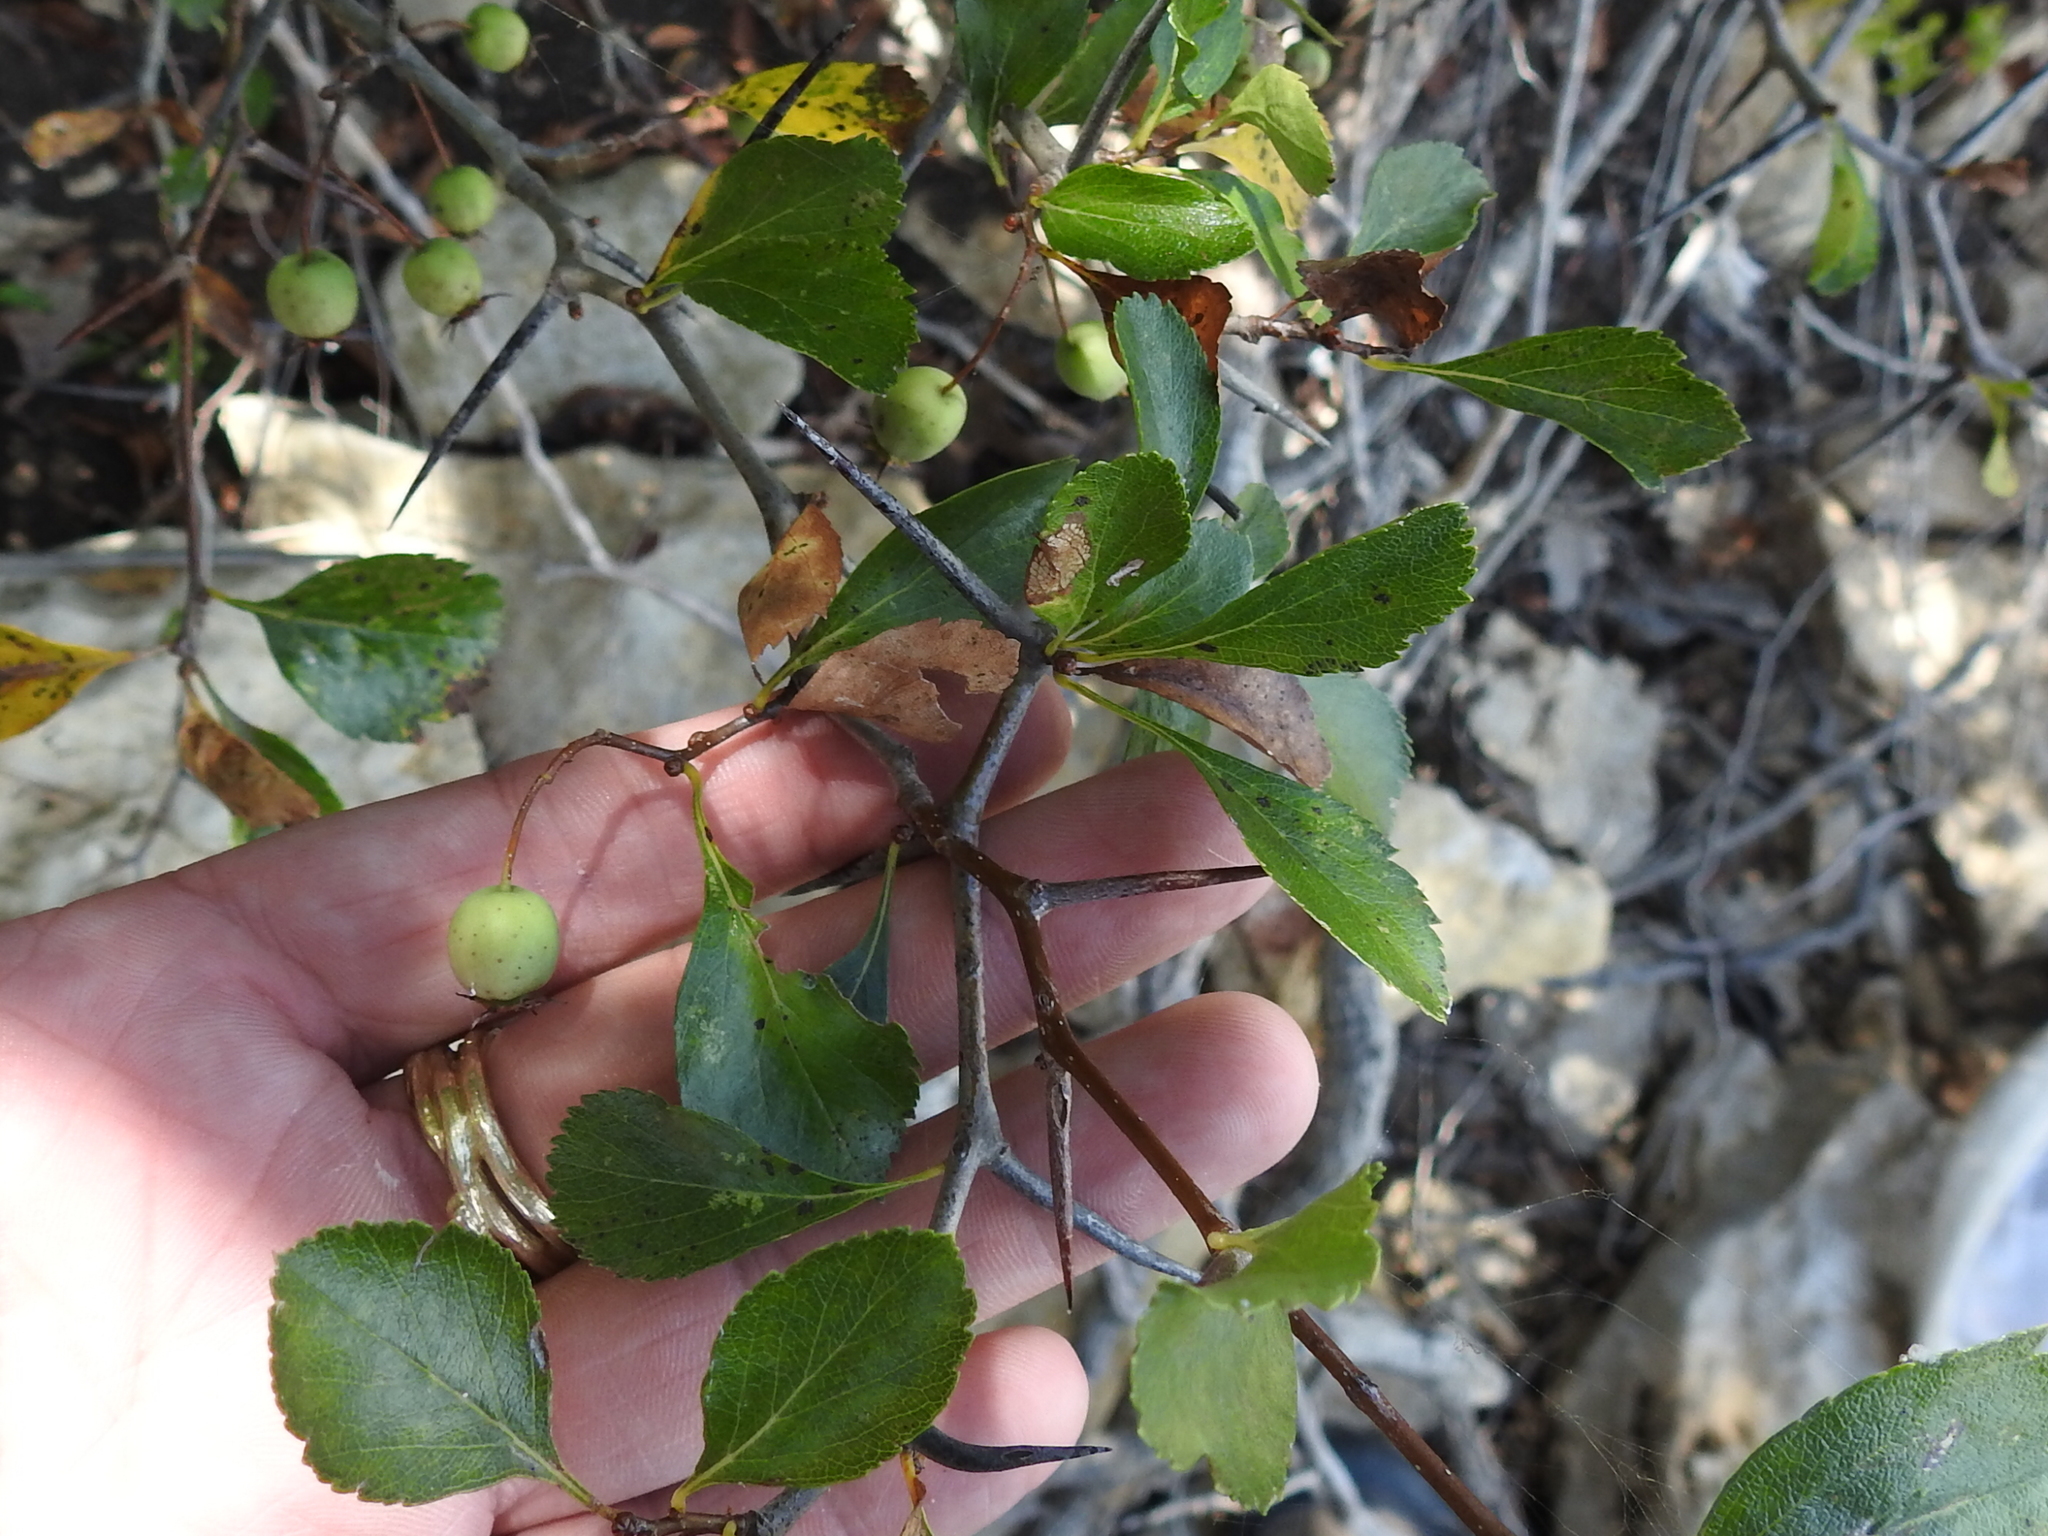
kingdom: Plantae
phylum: Tracheophyta
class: Magnoliopsida
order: Rosales
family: Rosaceae
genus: Crataegus
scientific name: Crataegus viridis
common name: Southernthorn
